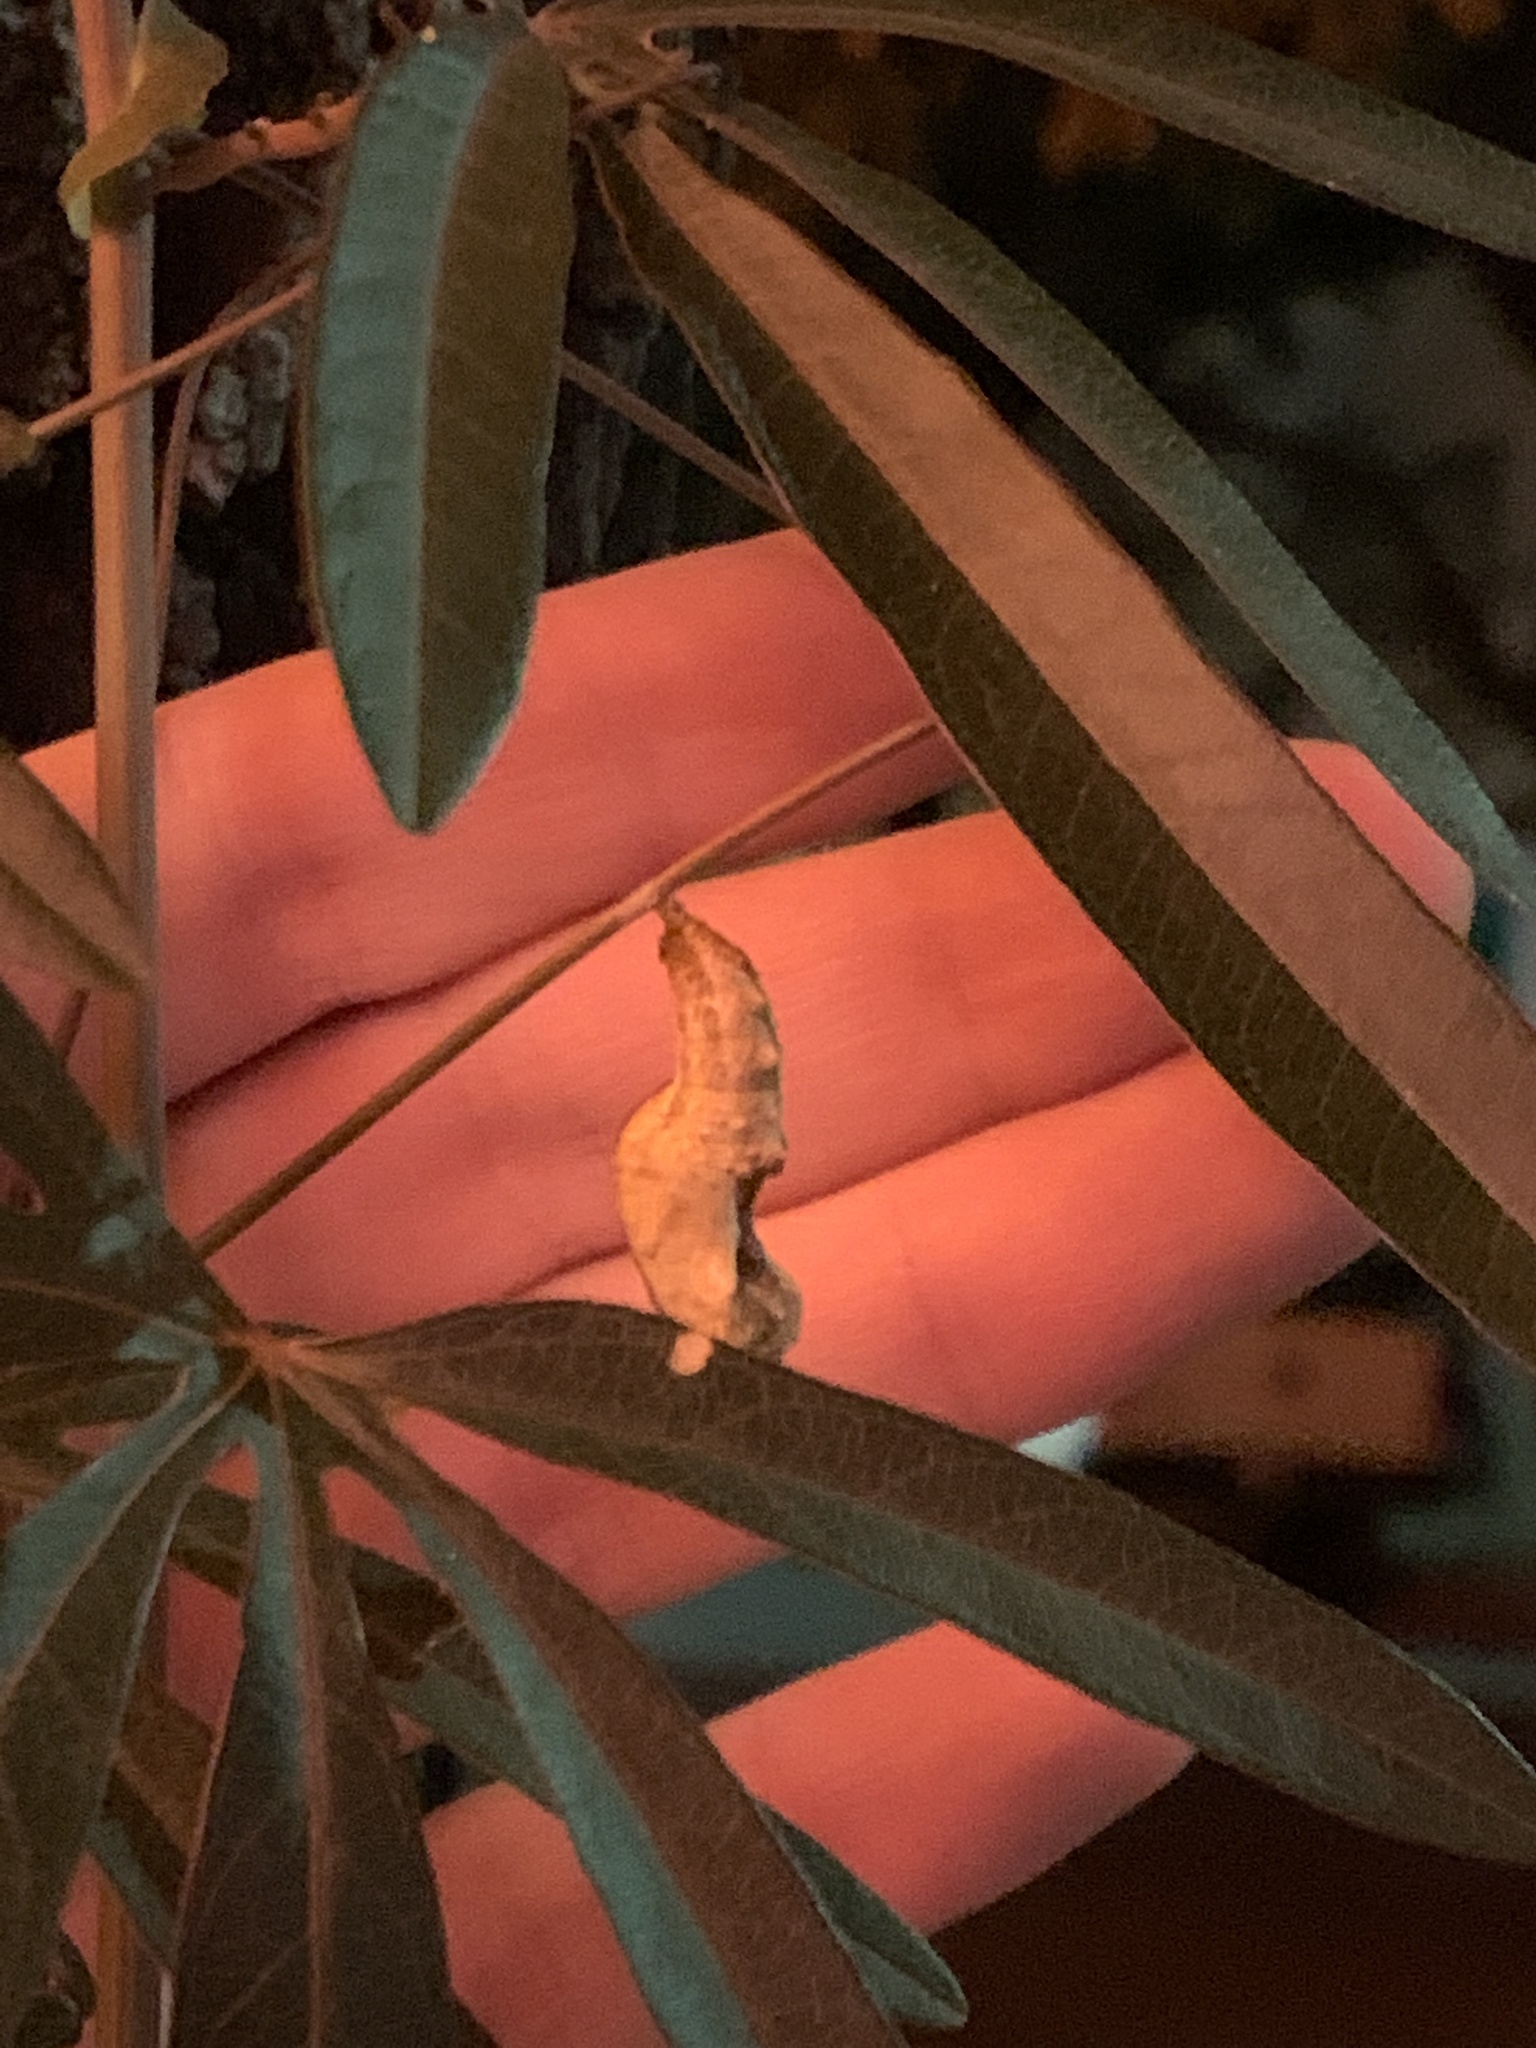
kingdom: Animalia
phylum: Arthropoda
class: Insecta
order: Lepidoptera
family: Nymphalidae
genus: Dione
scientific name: Dione vanillae
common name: Gulf fritillary
